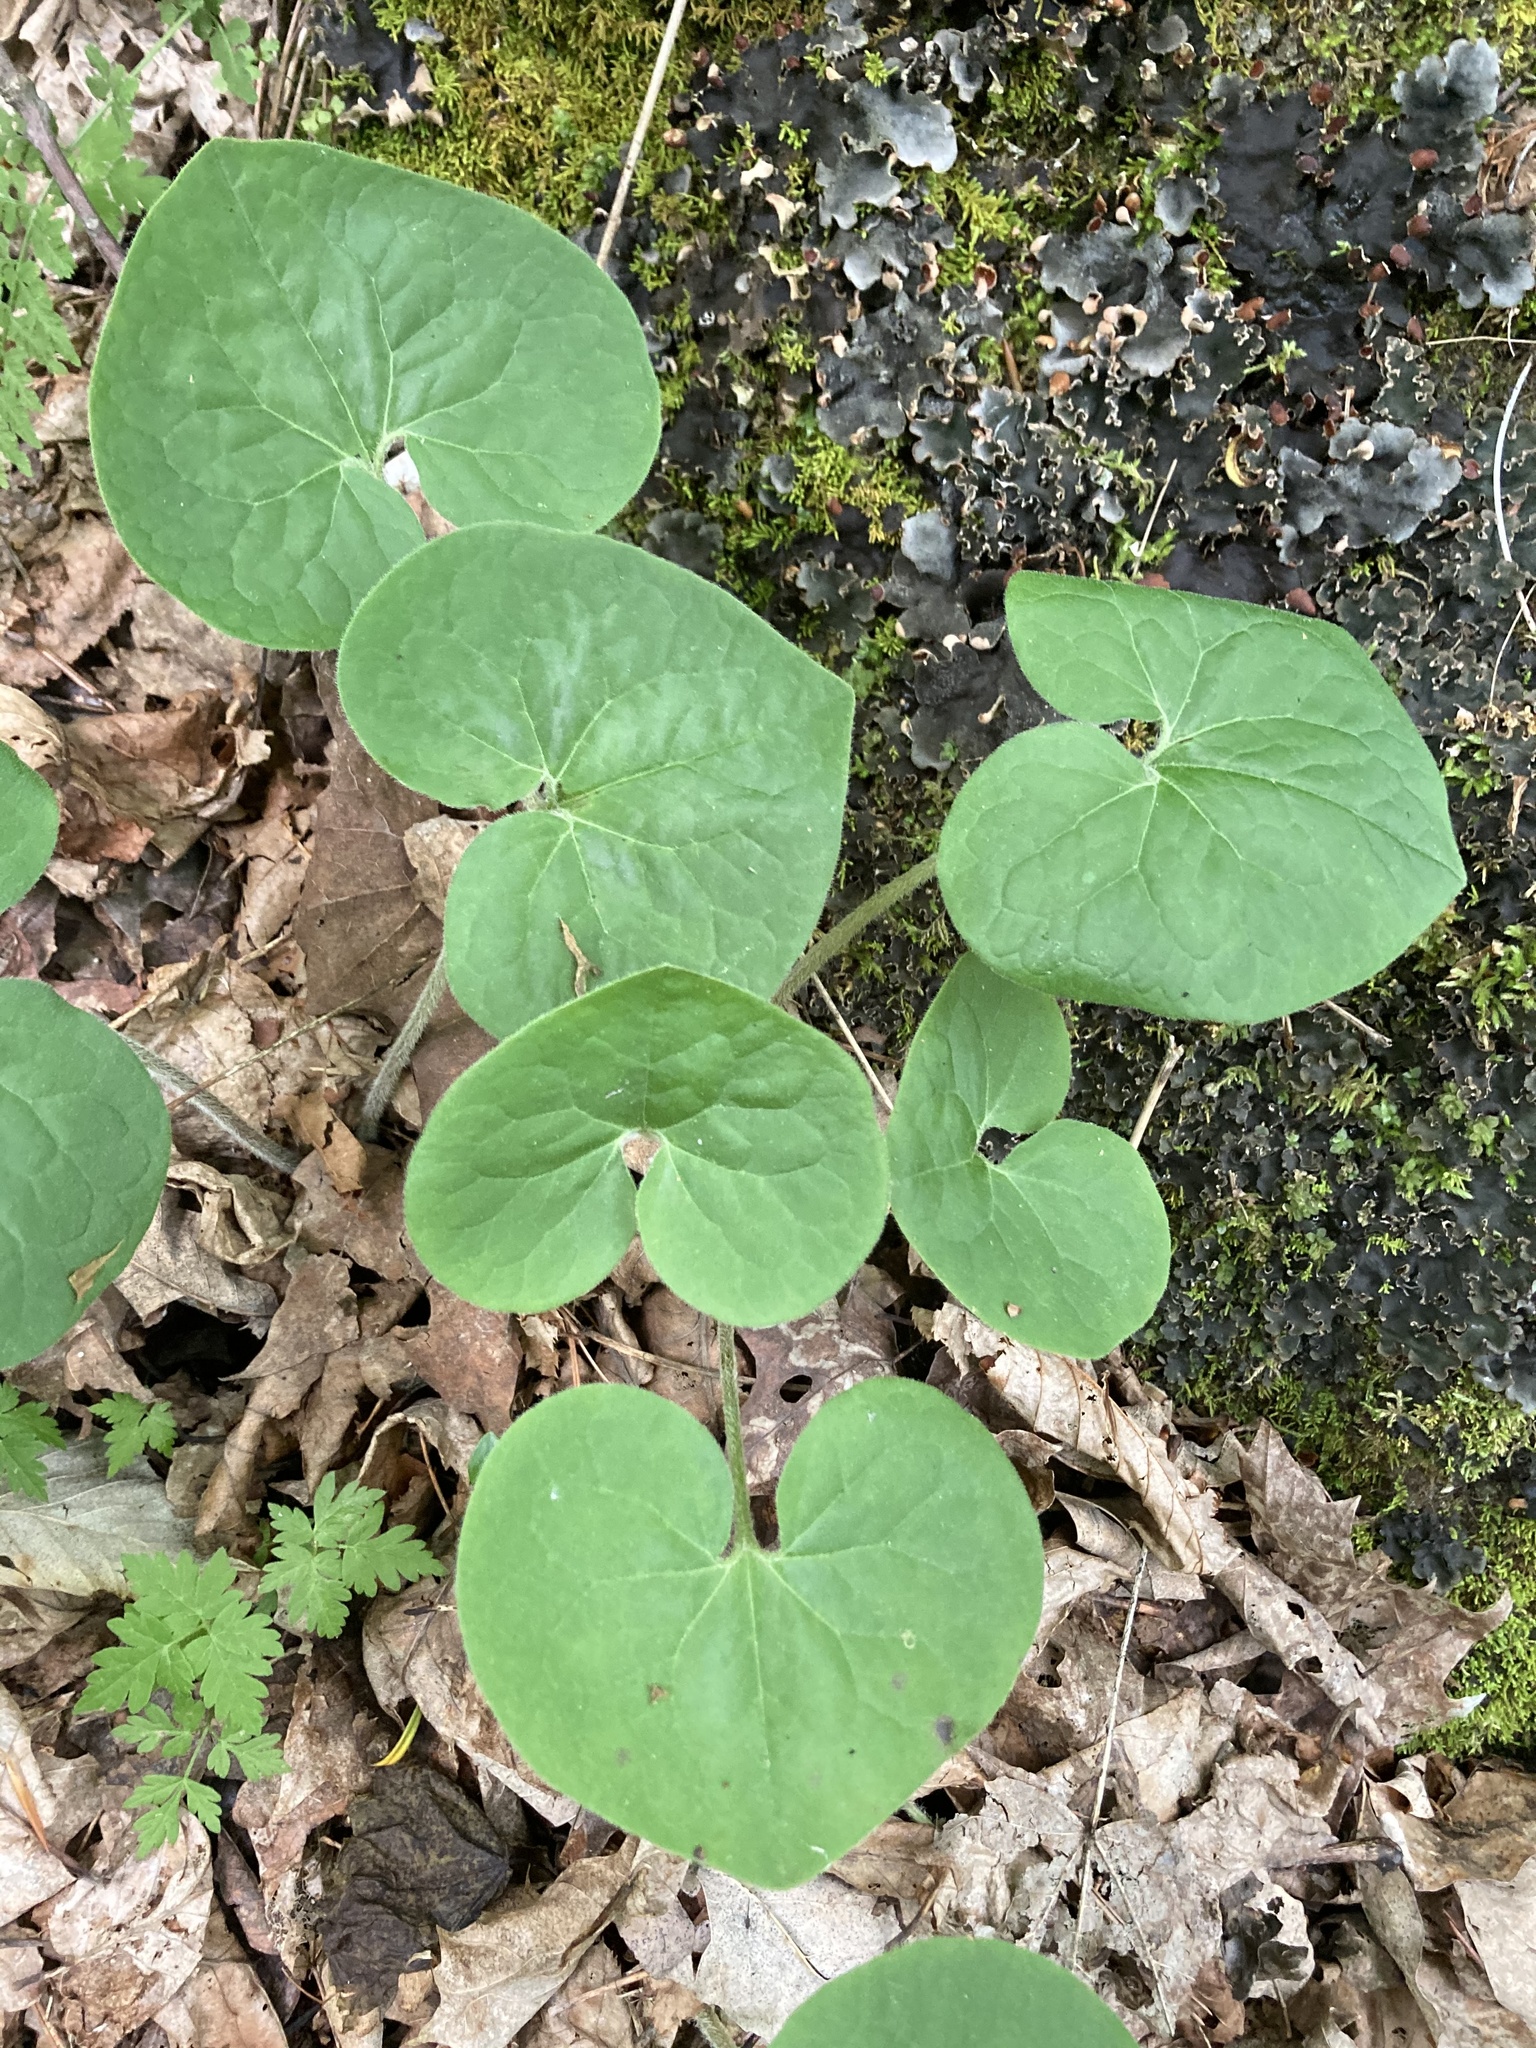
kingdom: Plantae
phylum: Tracheophyta
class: Magnoliopsida
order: Piperales
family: Aristolochiaceae
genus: Asarum
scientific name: Asarum canadense
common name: Wild ginger
